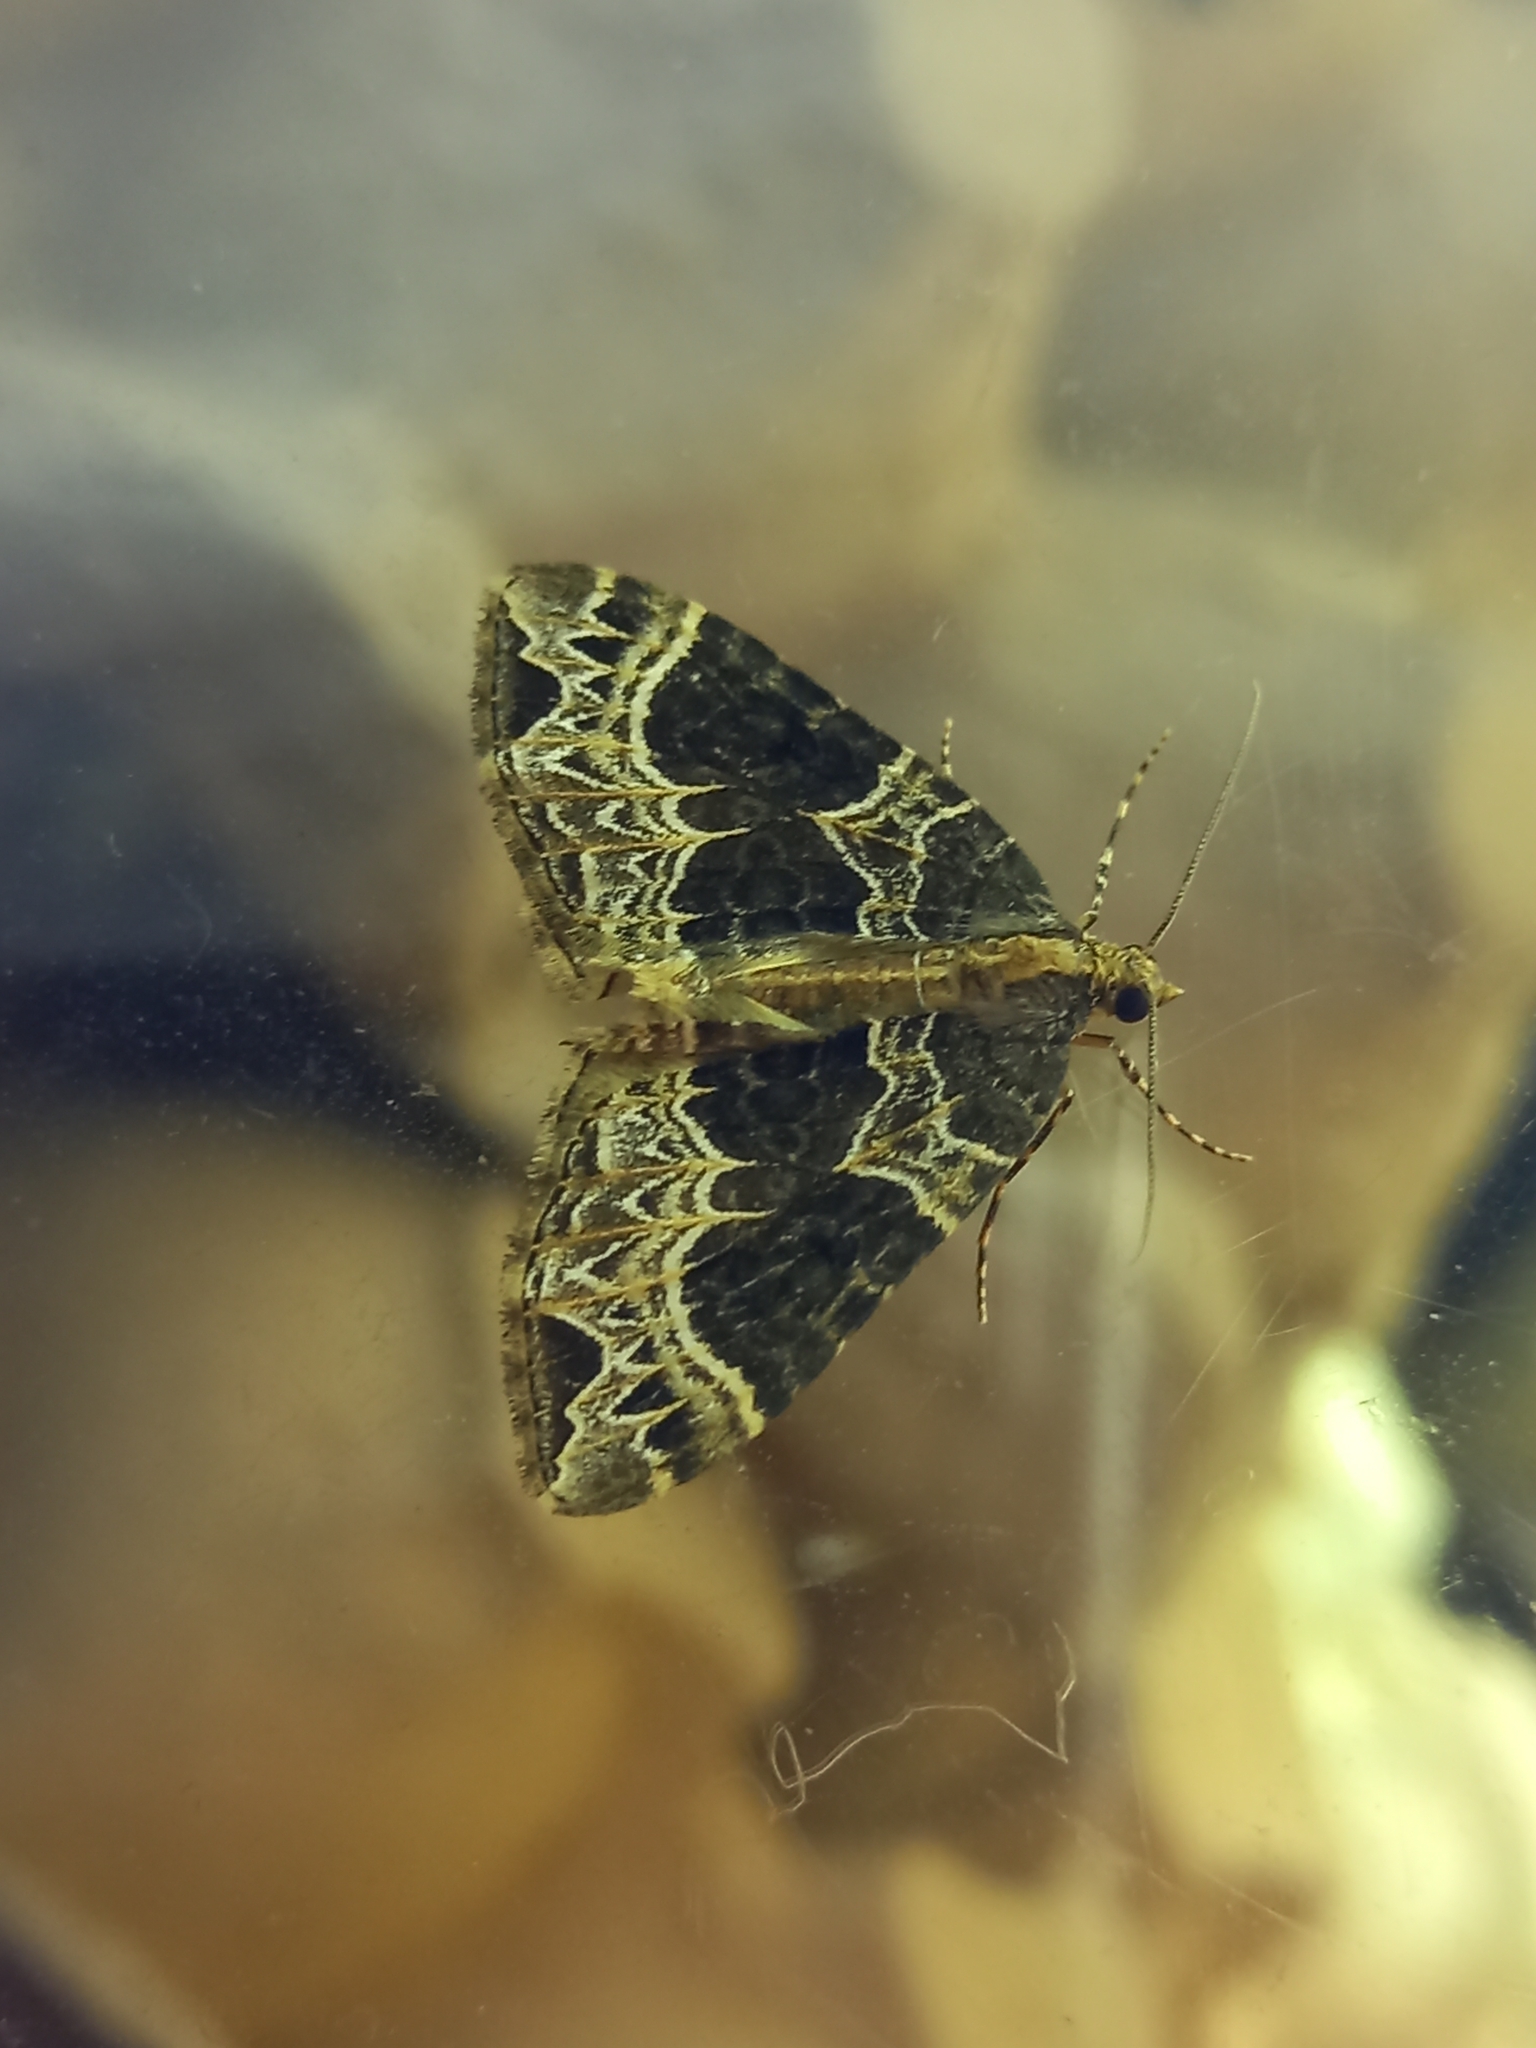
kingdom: Animalia
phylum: Arthropoda
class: Insecta
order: Lepidoptera
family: Geometridae
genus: Ecliptopera
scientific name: Ecliptopera silaceata
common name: Small phoenix
